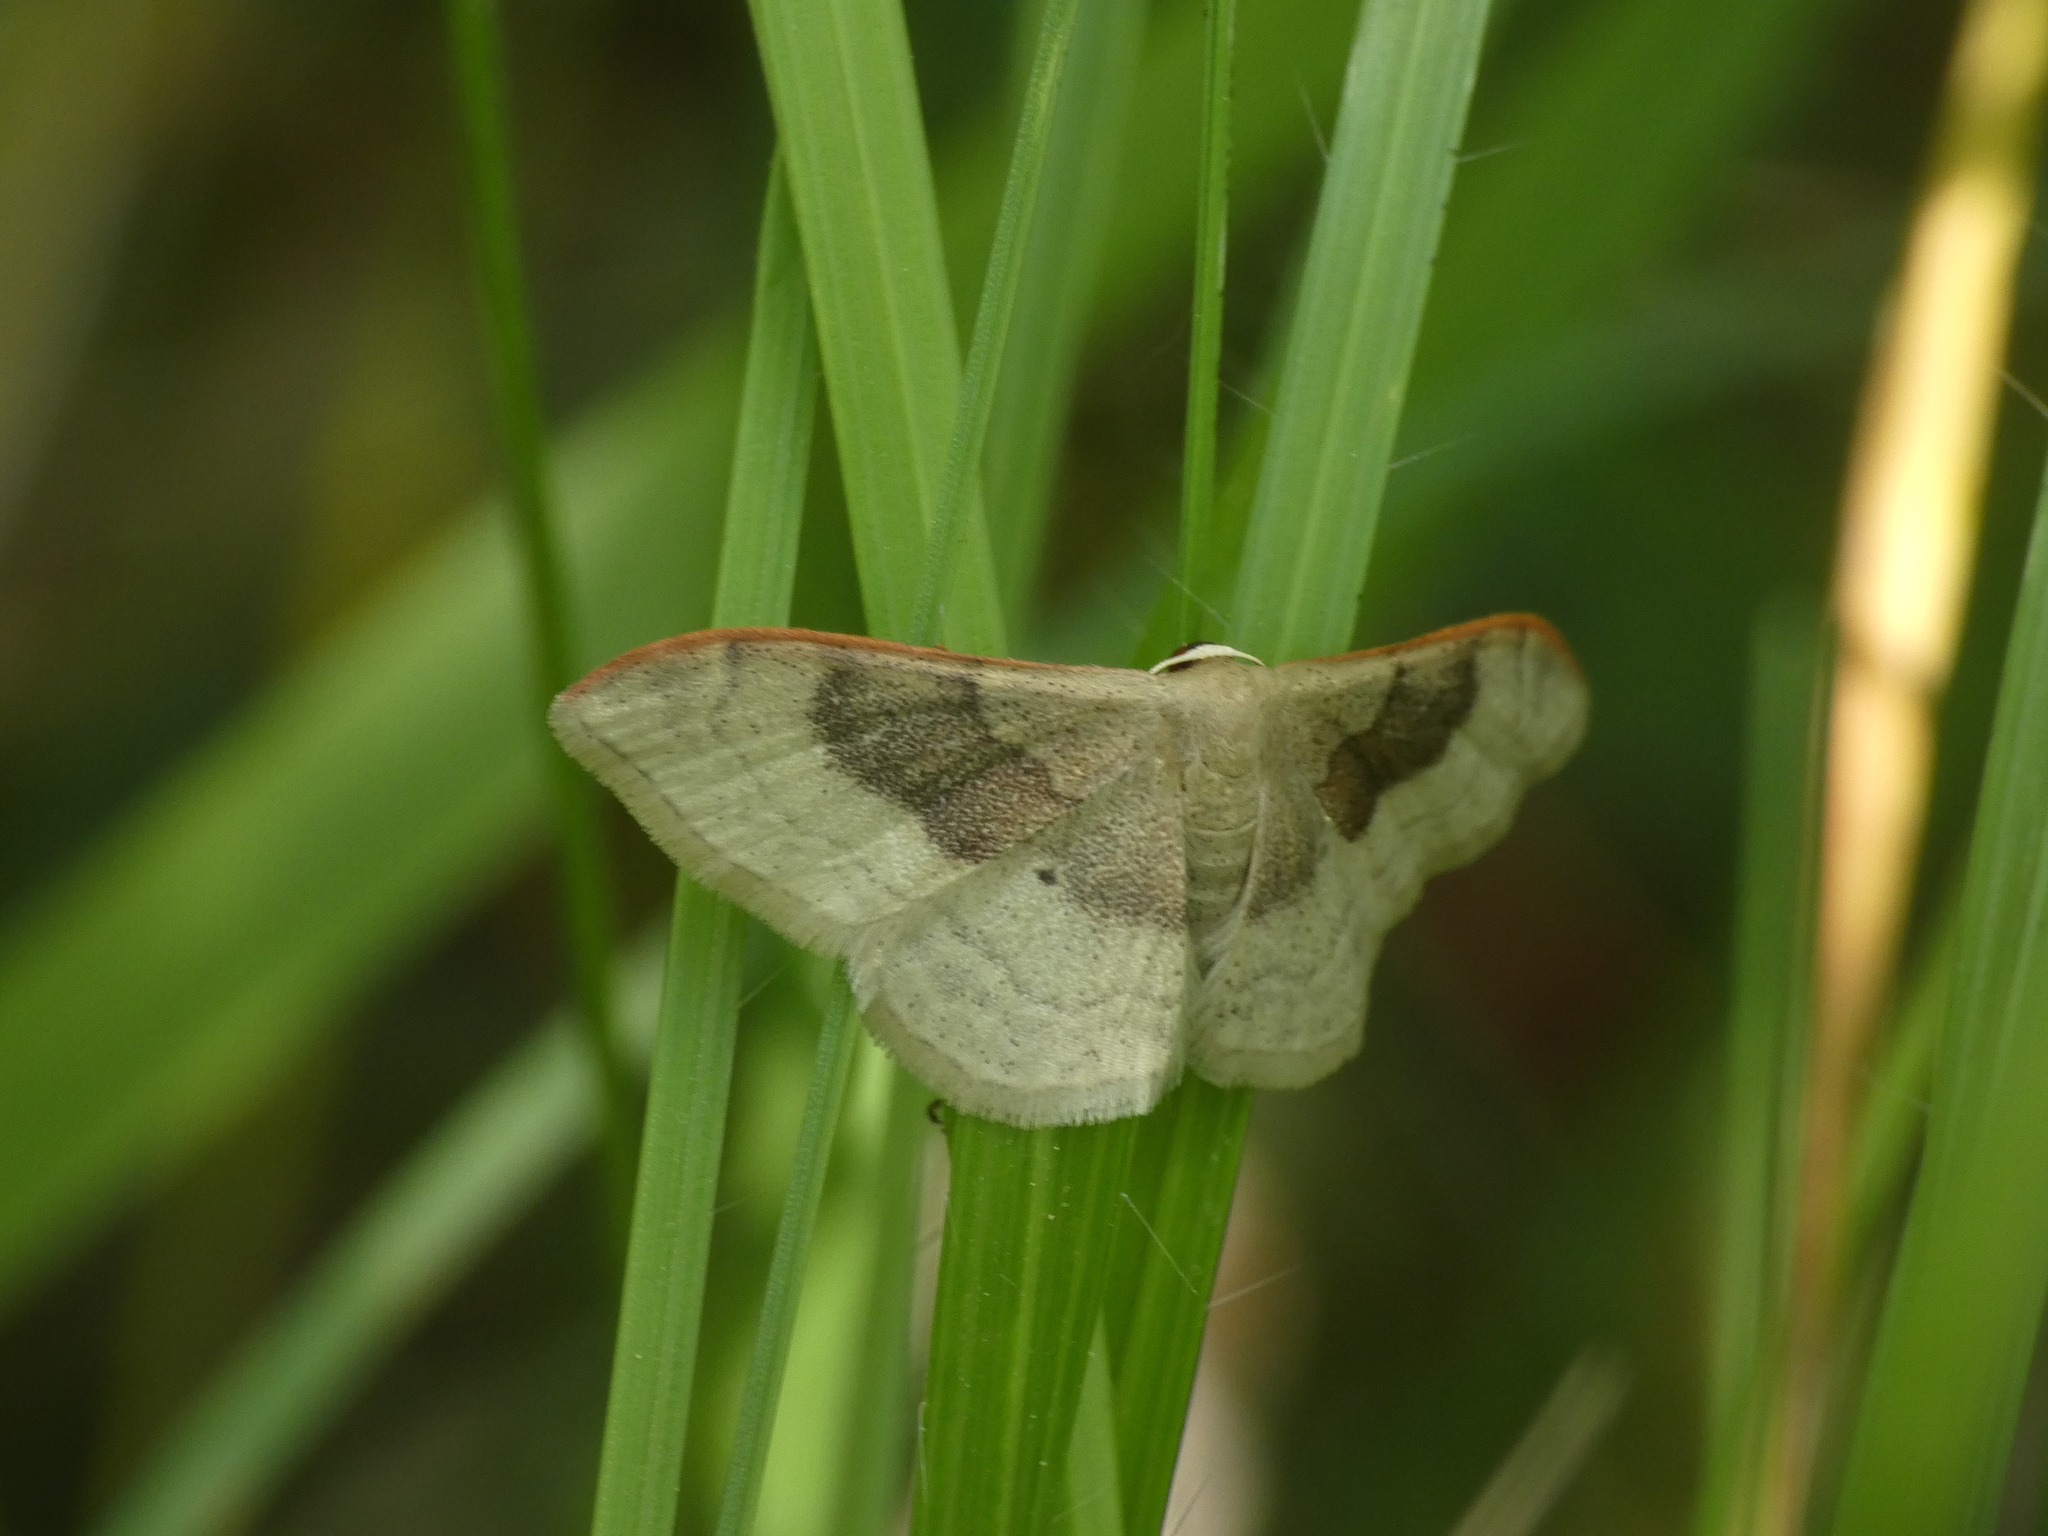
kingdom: Animalia
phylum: Arthropoda
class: Insecta
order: Lepidoptera
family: Geometridae
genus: Idaea
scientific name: Idaea degeneraria
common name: Portland ribbon wave
